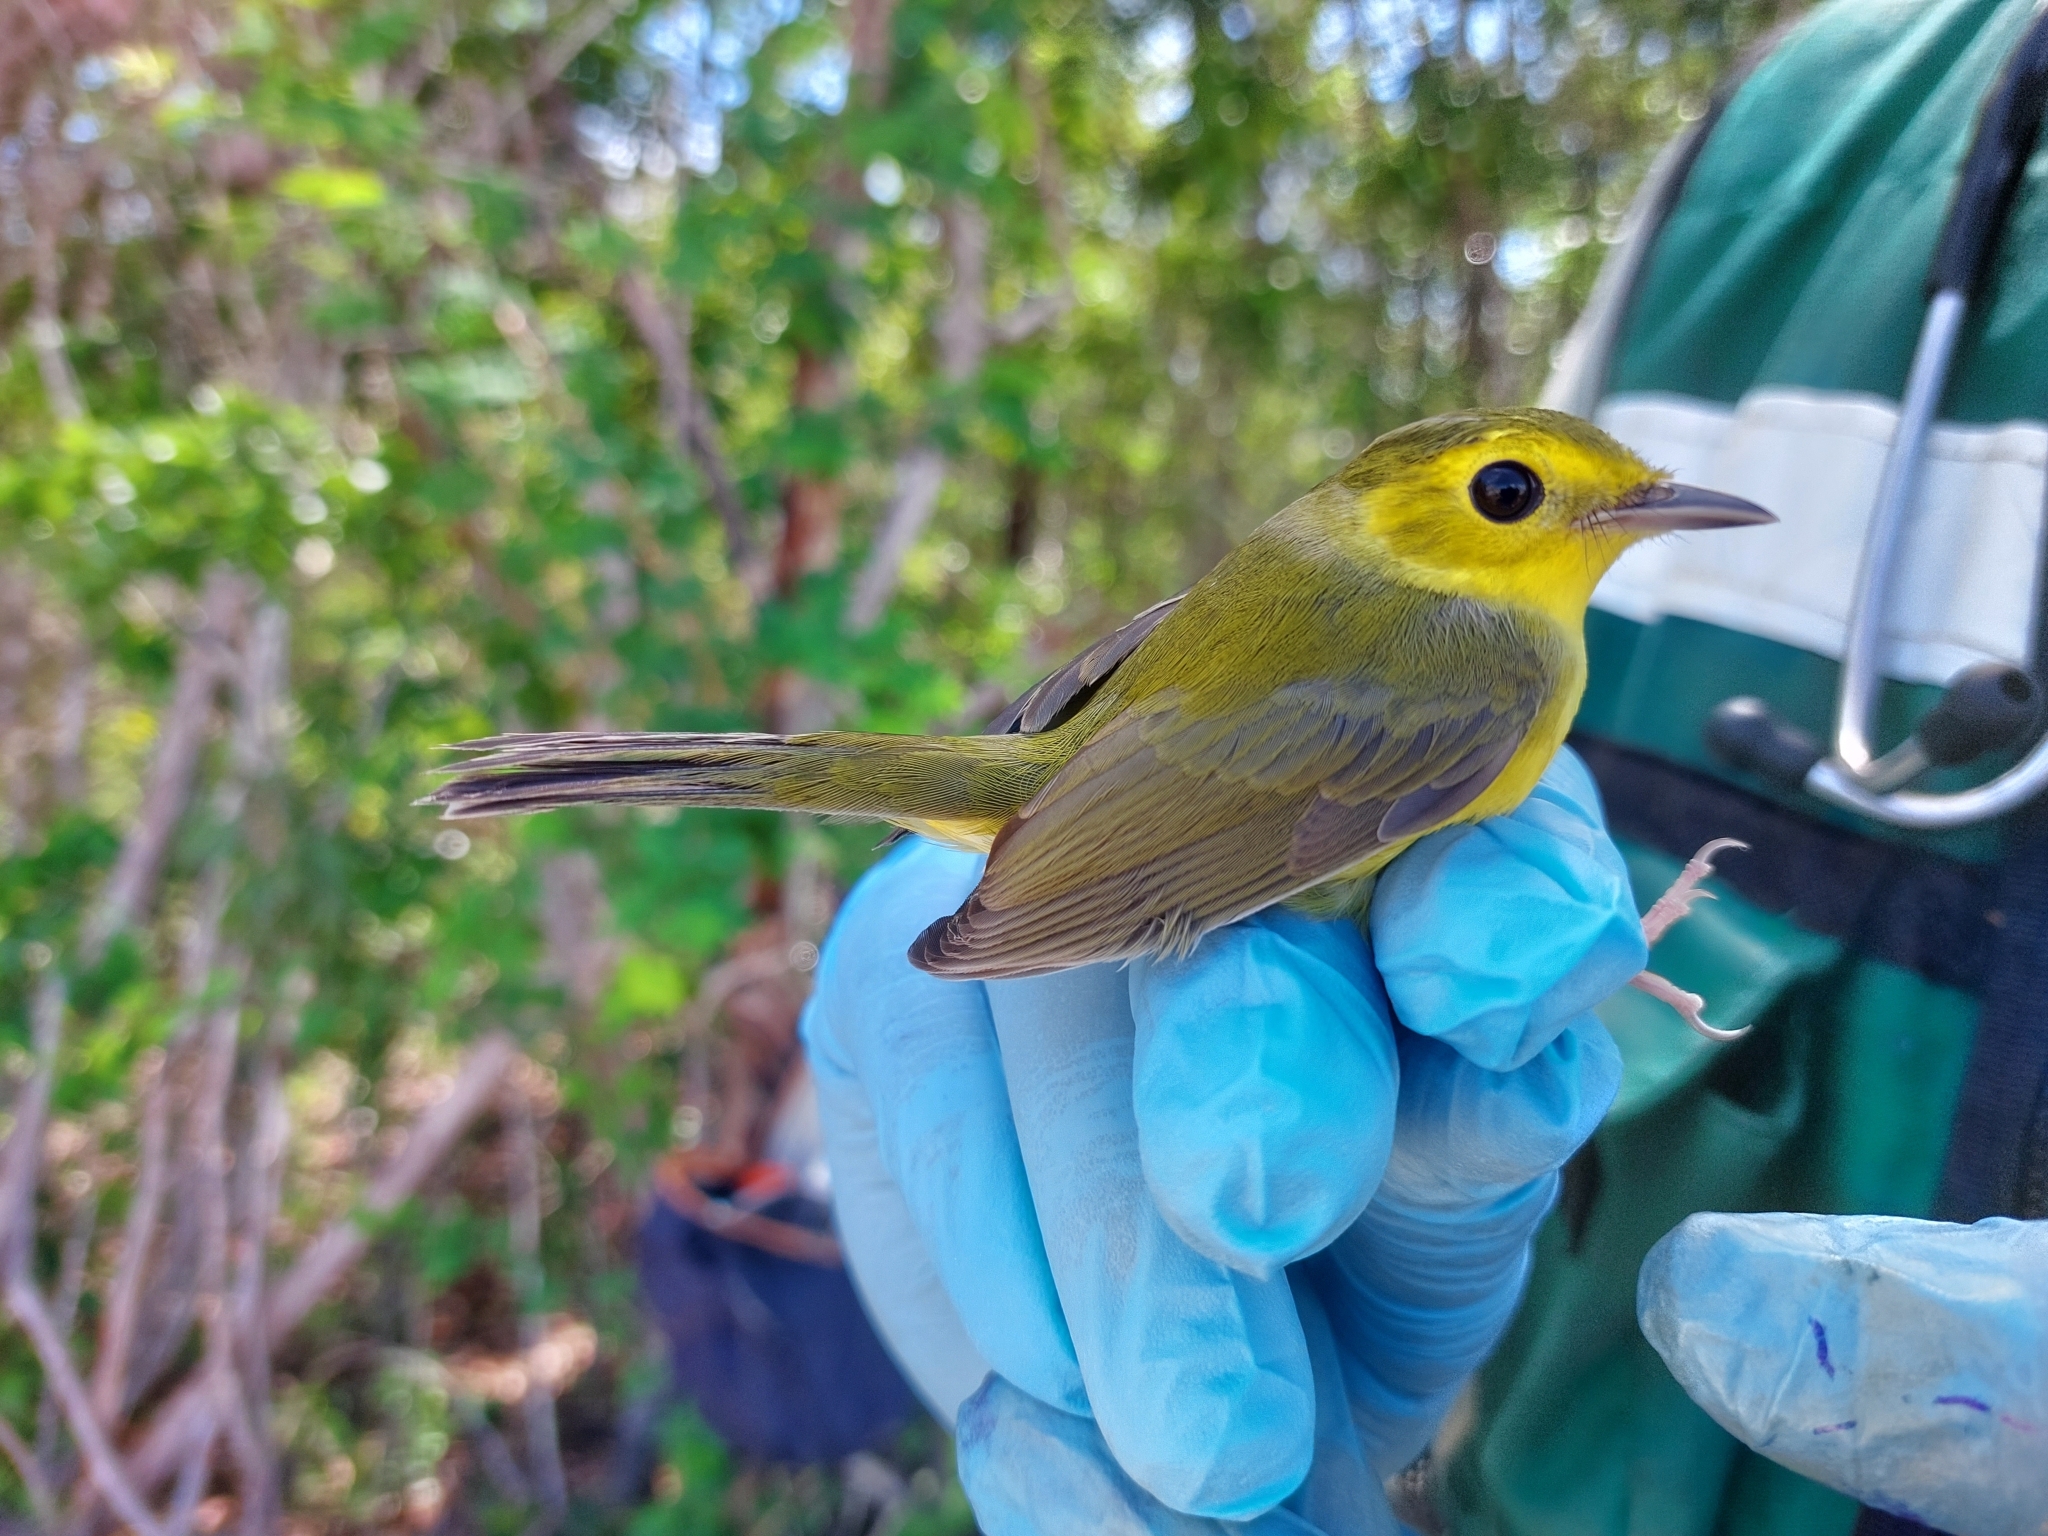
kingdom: Animalia
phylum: Chordata
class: Aves
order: Passeriformes
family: Parulidae
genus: Setophaga
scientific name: Setophaga citrina
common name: Hooded warbler
